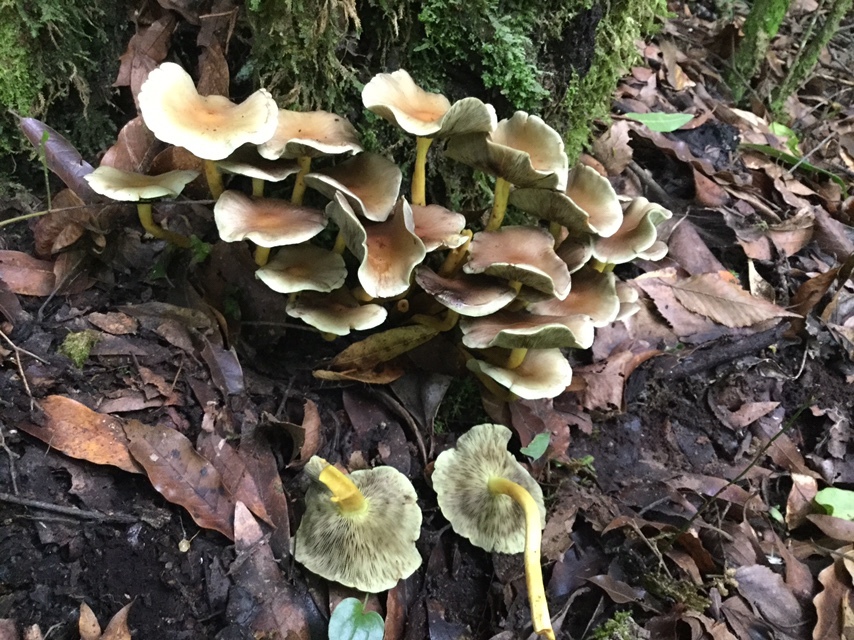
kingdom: Fungi
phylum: Basidiomycota
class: Agaricomycetes
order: Agaricales
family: Strophariaceae
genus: Hypholoma
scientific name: Hypholoma fasciculare
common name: Sulphur tuft
